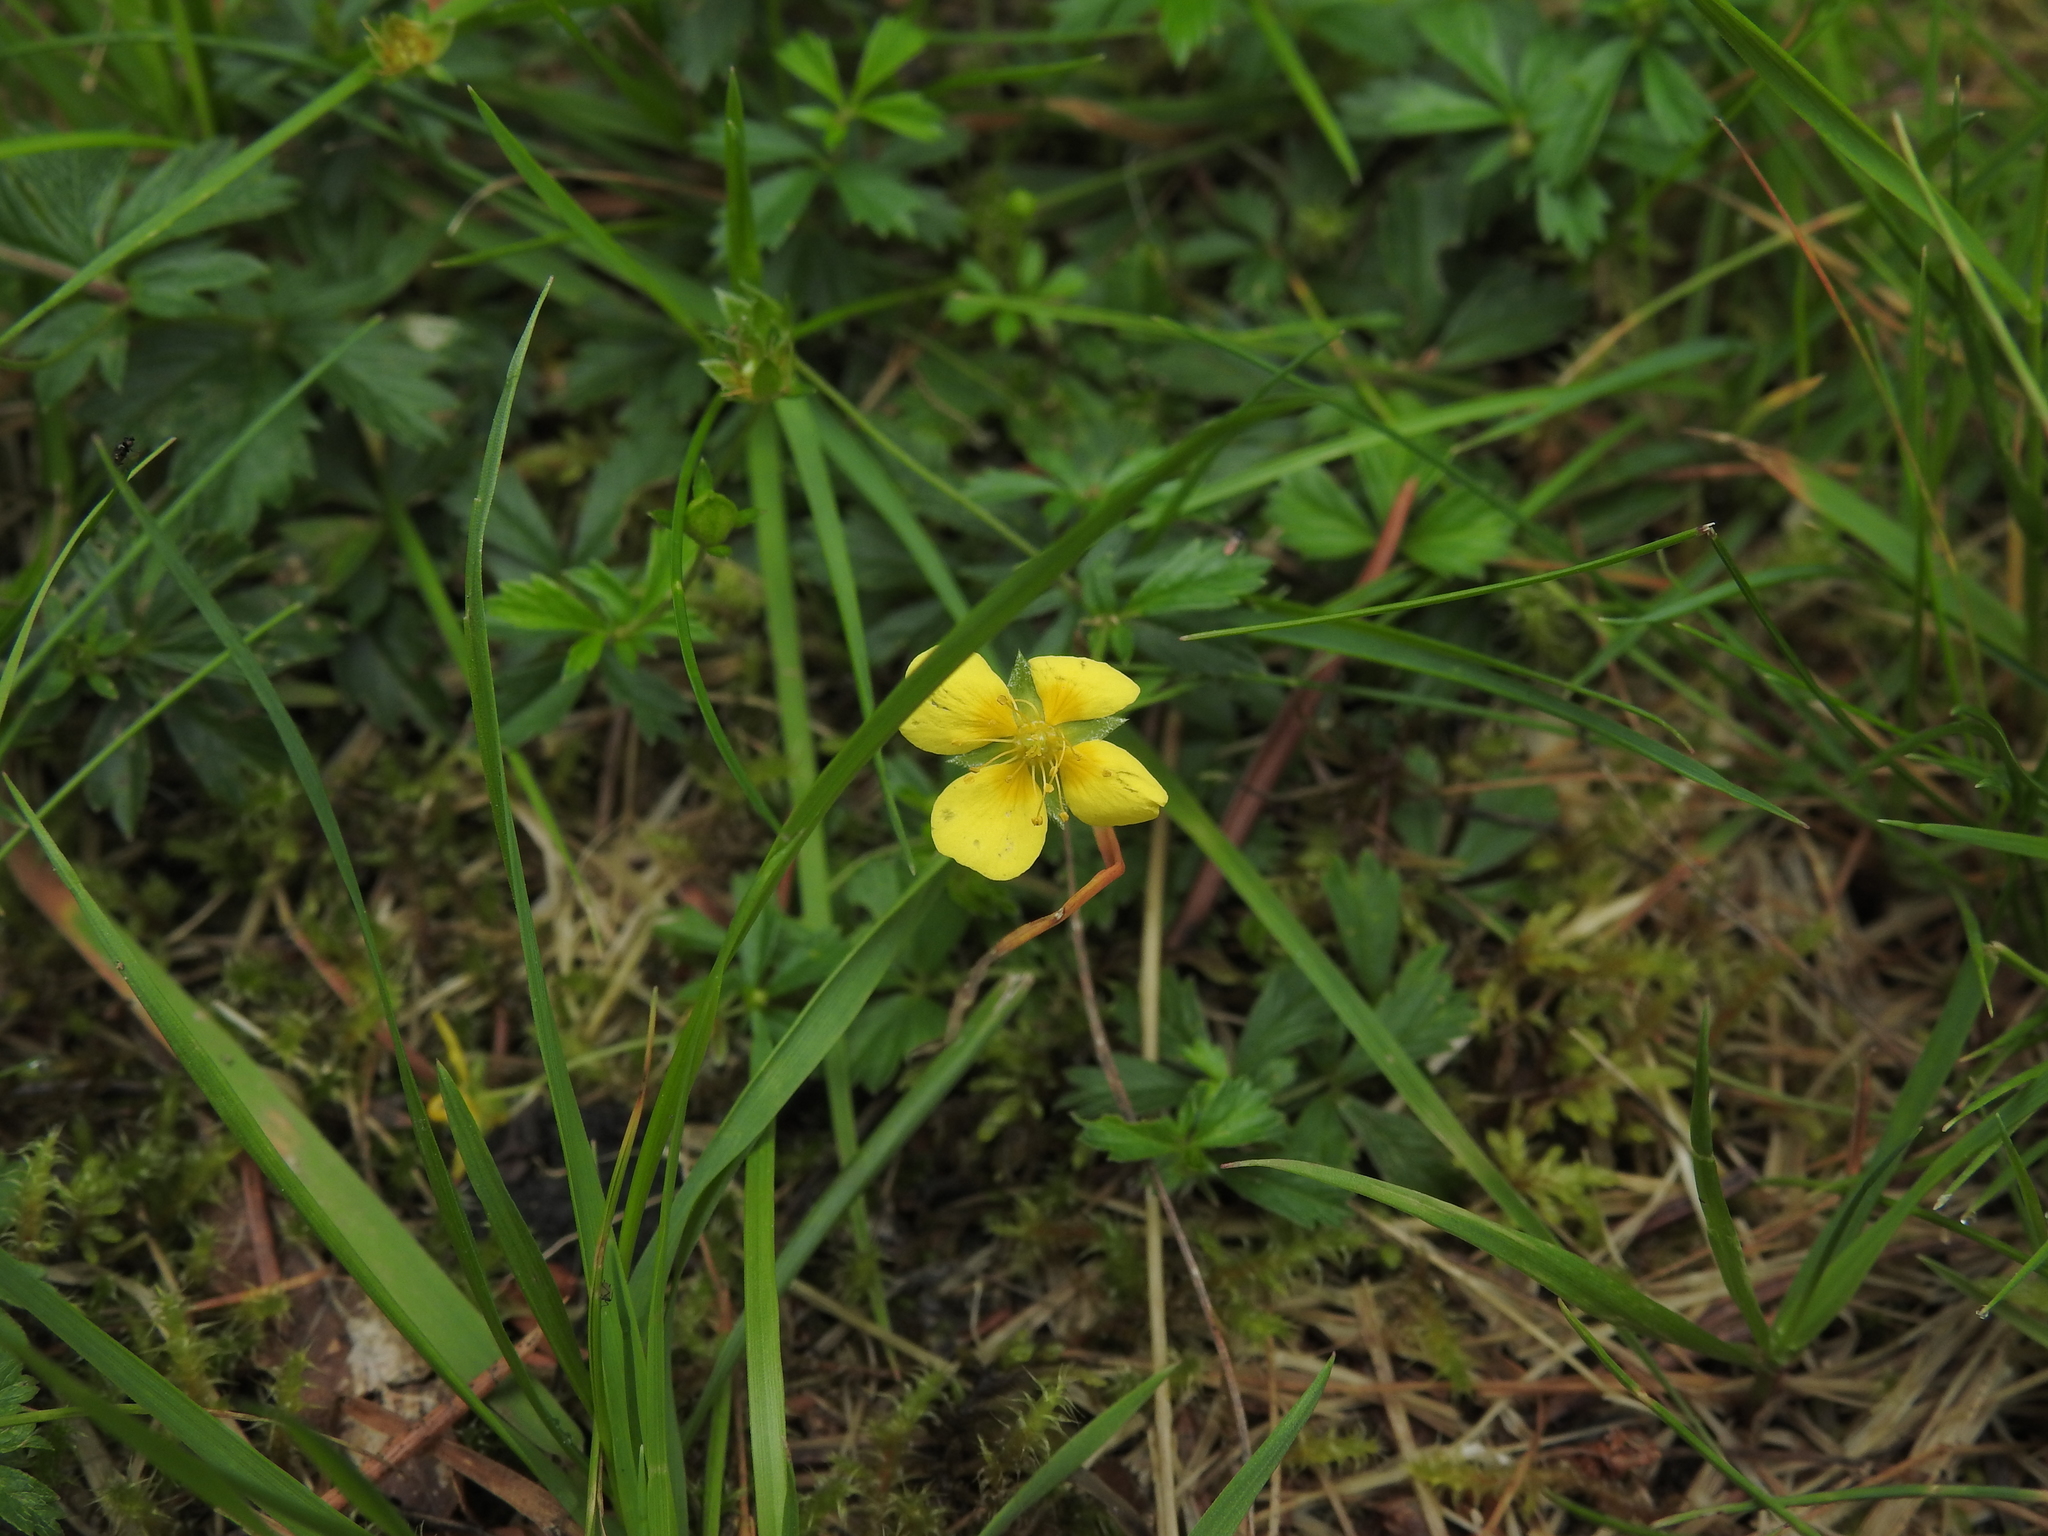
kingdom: Plantae
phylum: Tracheophyta
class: Magnoliopsida
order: Rosales
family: Rosaceae
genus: Potentilla
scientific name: Potentilla erecta
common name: Tormentil
